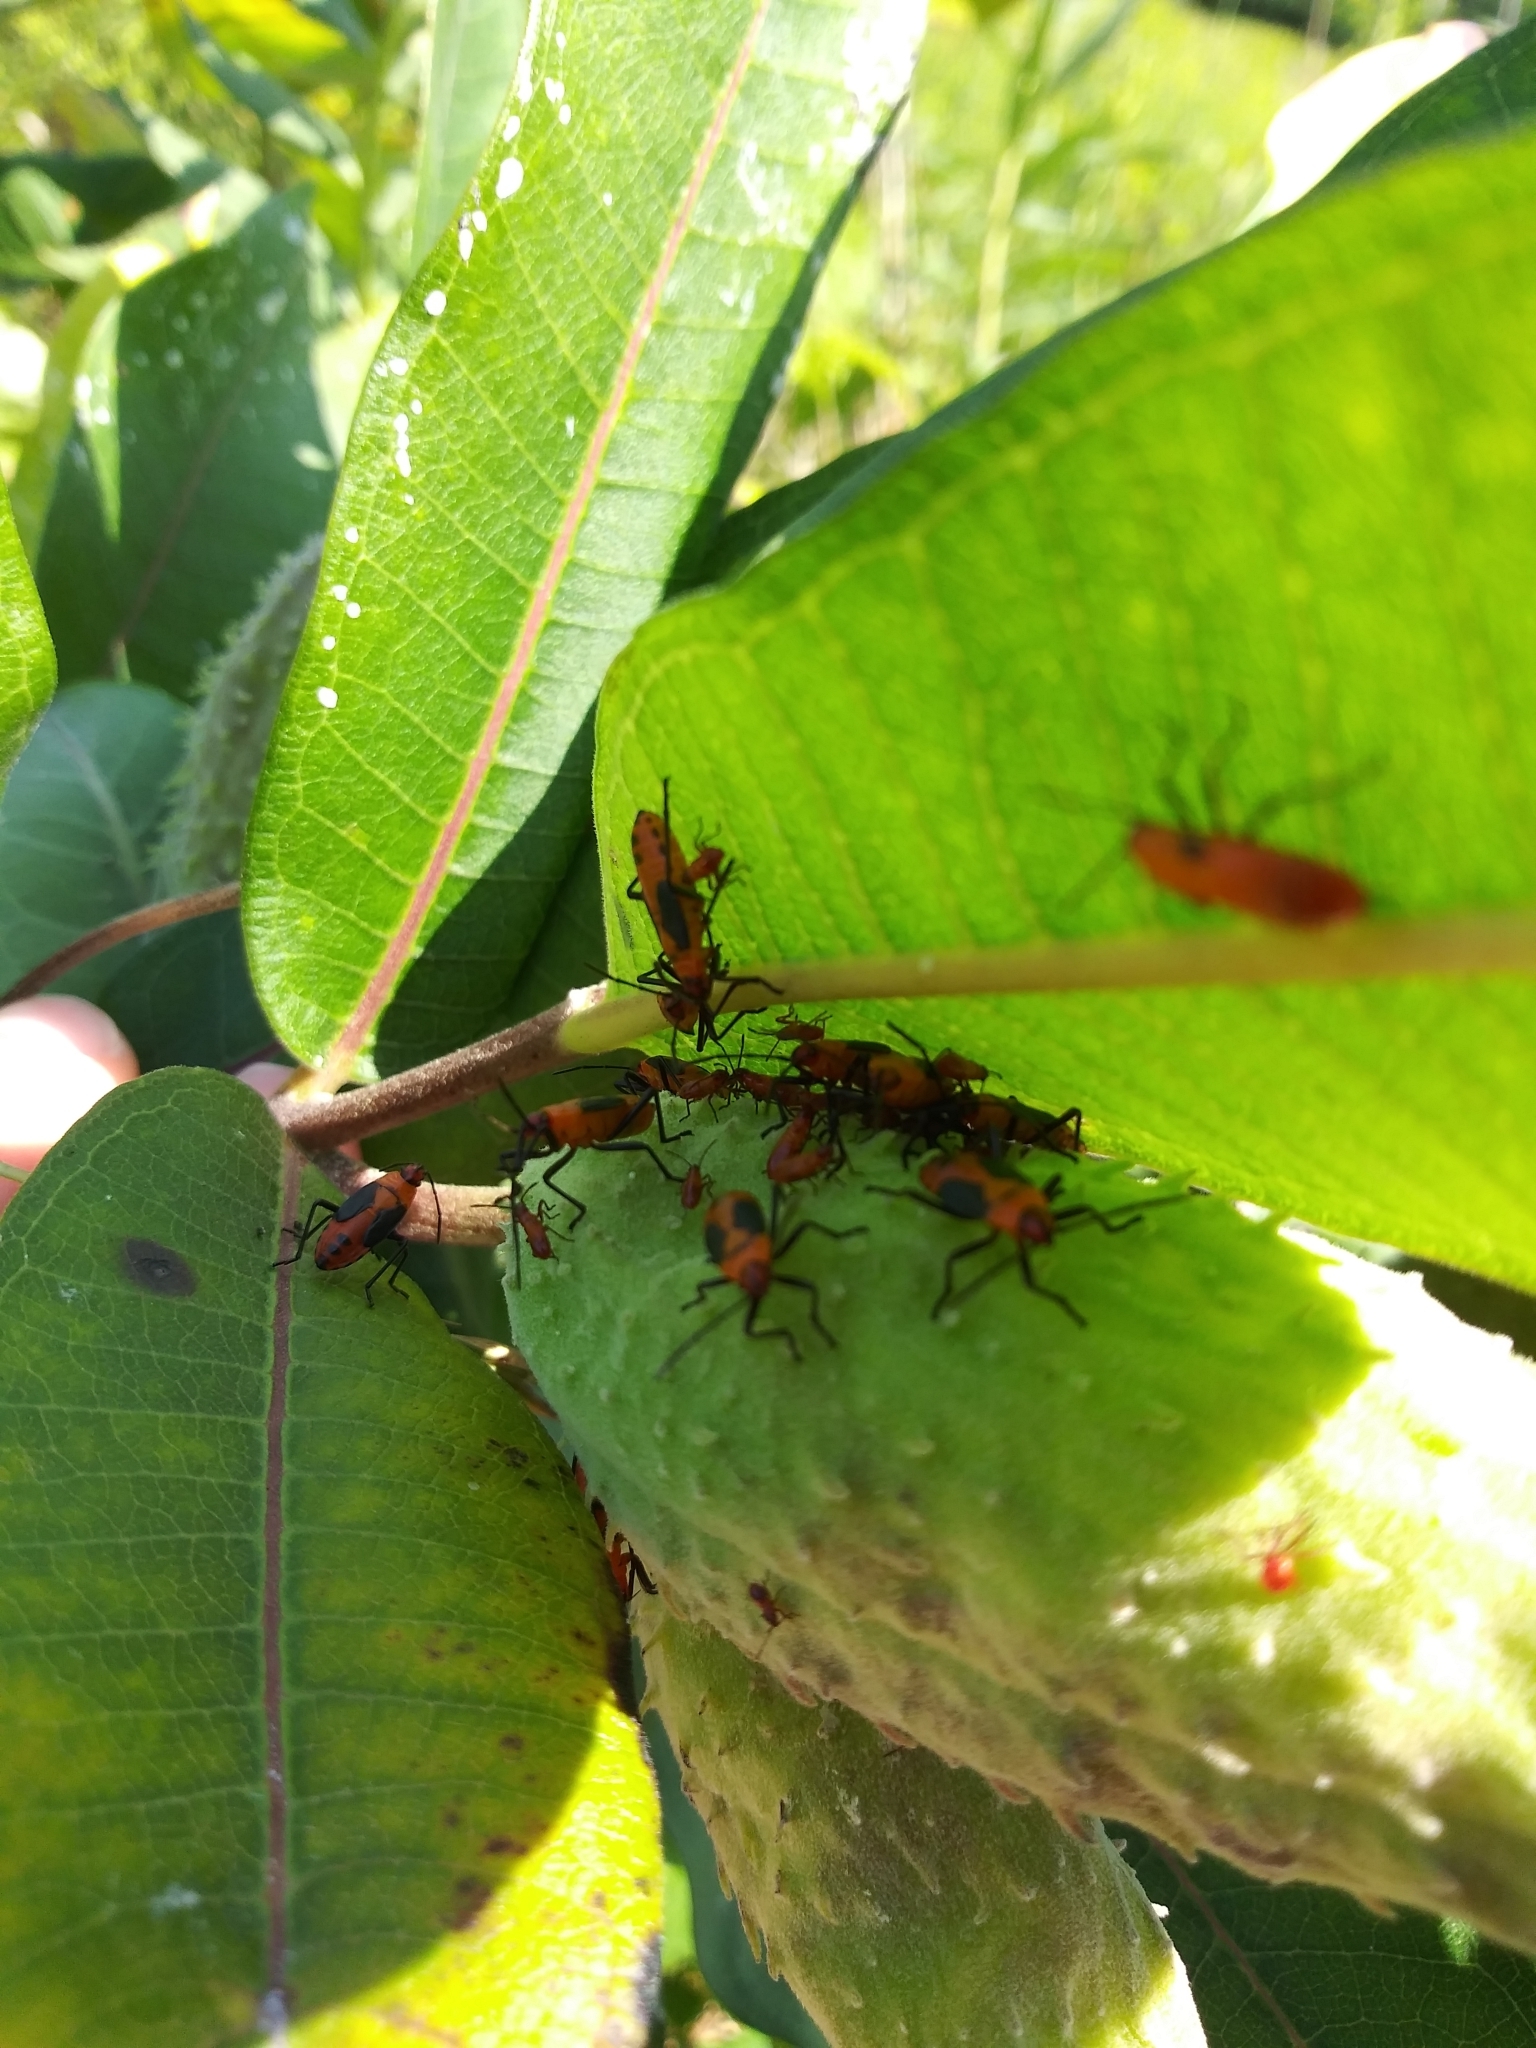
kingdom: Animalia
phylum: Arthropoda
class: Insecta
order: Hemiptera
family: Lygaeidae
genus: Oncopeltus
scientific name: Oncopeltus fasciatus
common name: Large milkweed bug
